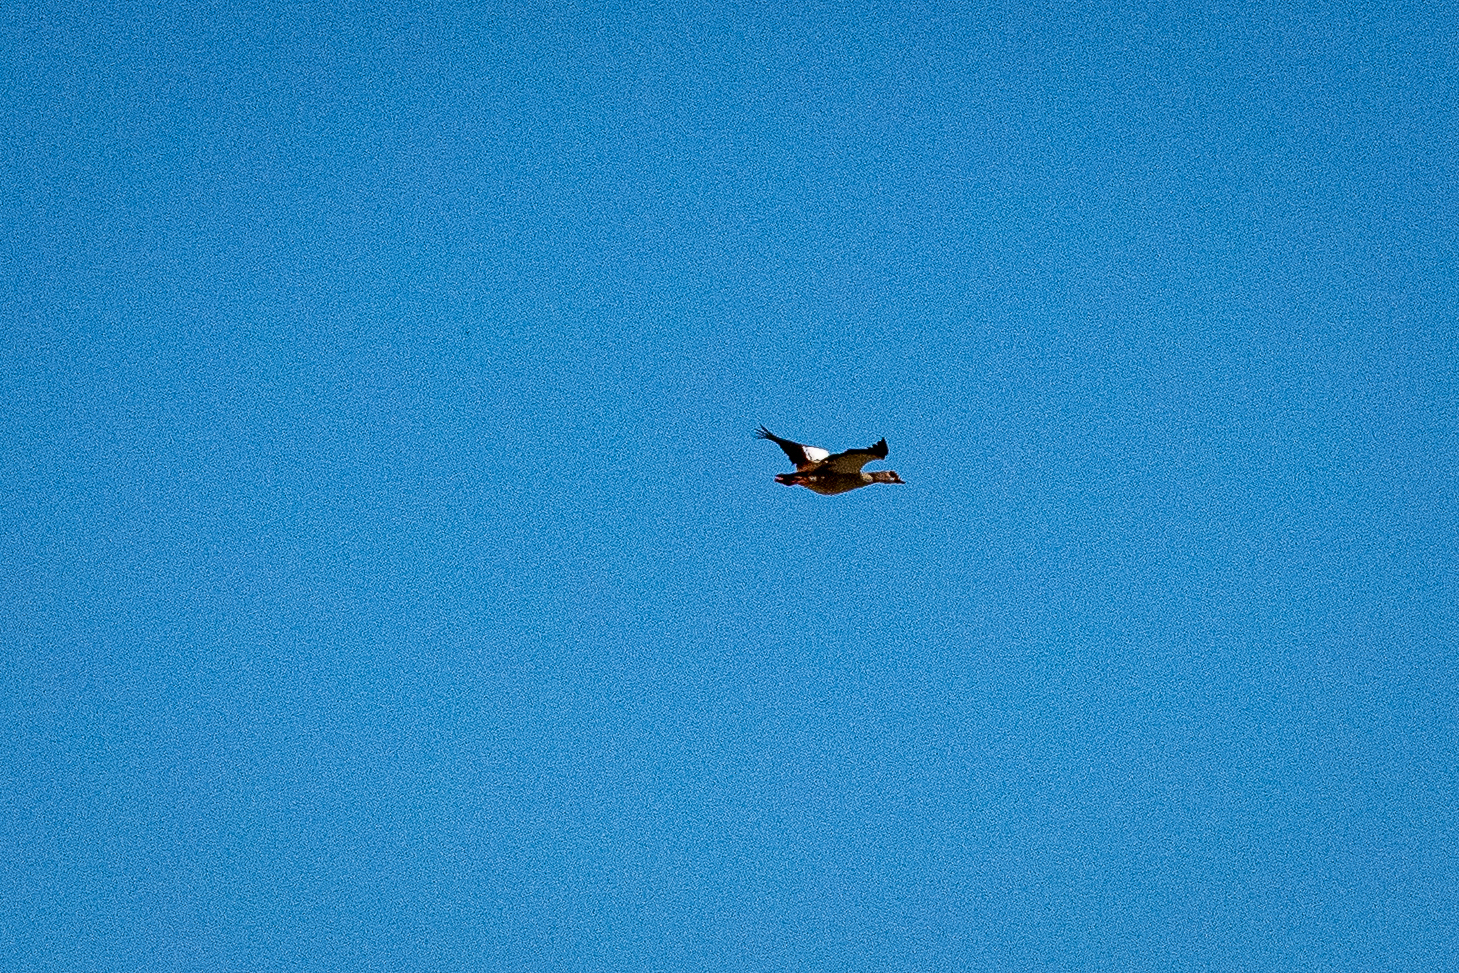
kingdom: Animalia
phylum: Chordata
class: Aves
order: Anseriformes
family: Anatidae
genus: Alopochen
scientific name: Alopochen aegyptiaca
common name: Egyptian goose
